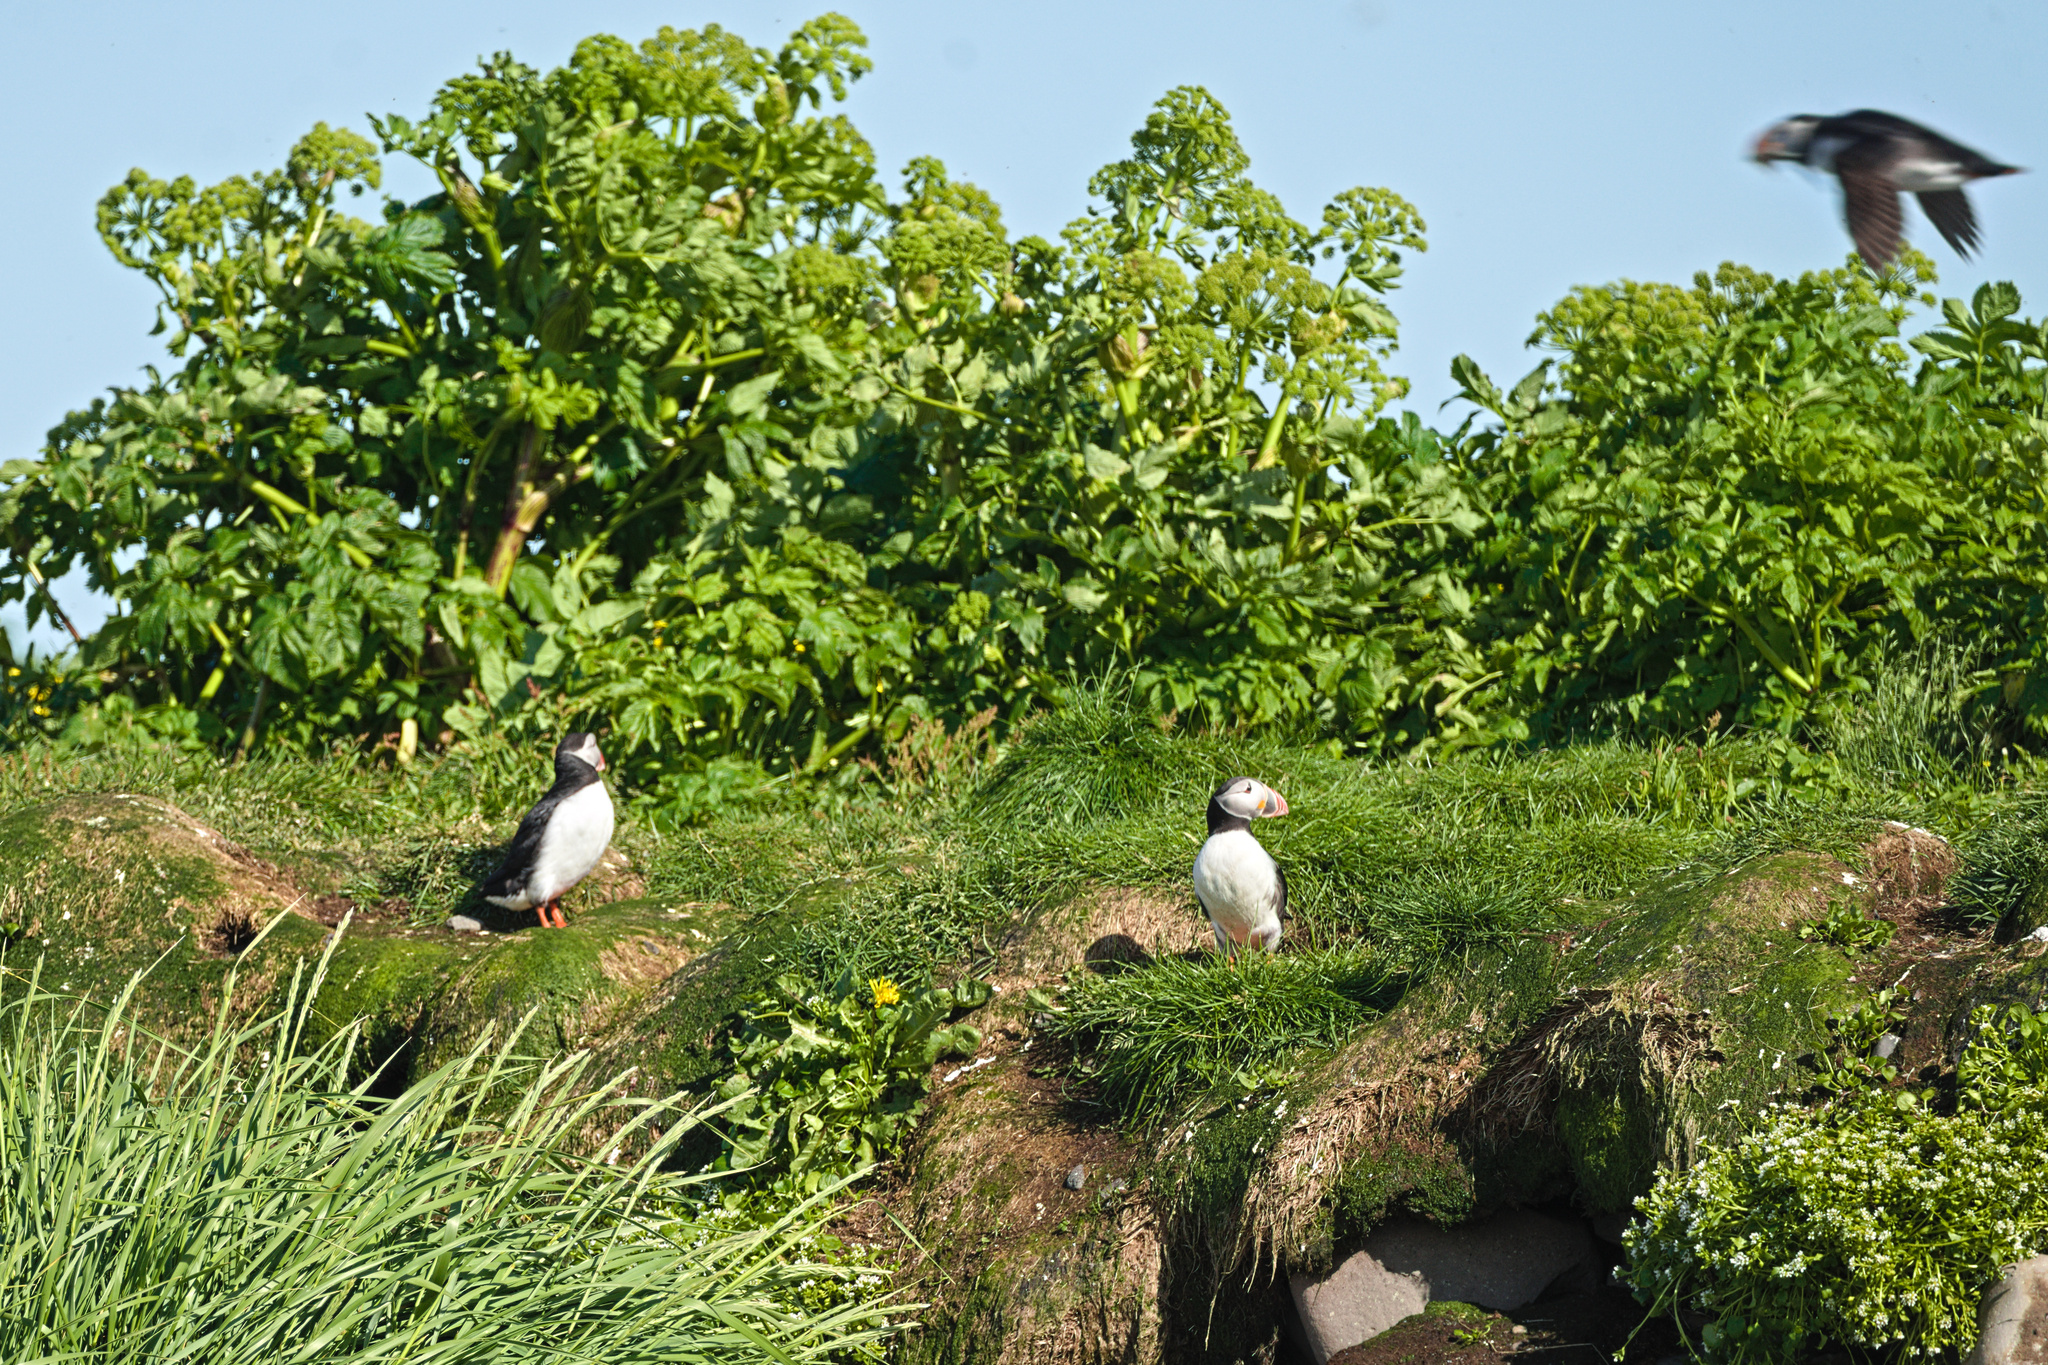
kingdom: Animalia
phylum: Chordata
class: Aves
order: Charadriiformes
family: Alcidae
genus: Fratercula
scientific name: Fratercula arctica
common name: Atlantic puffin
